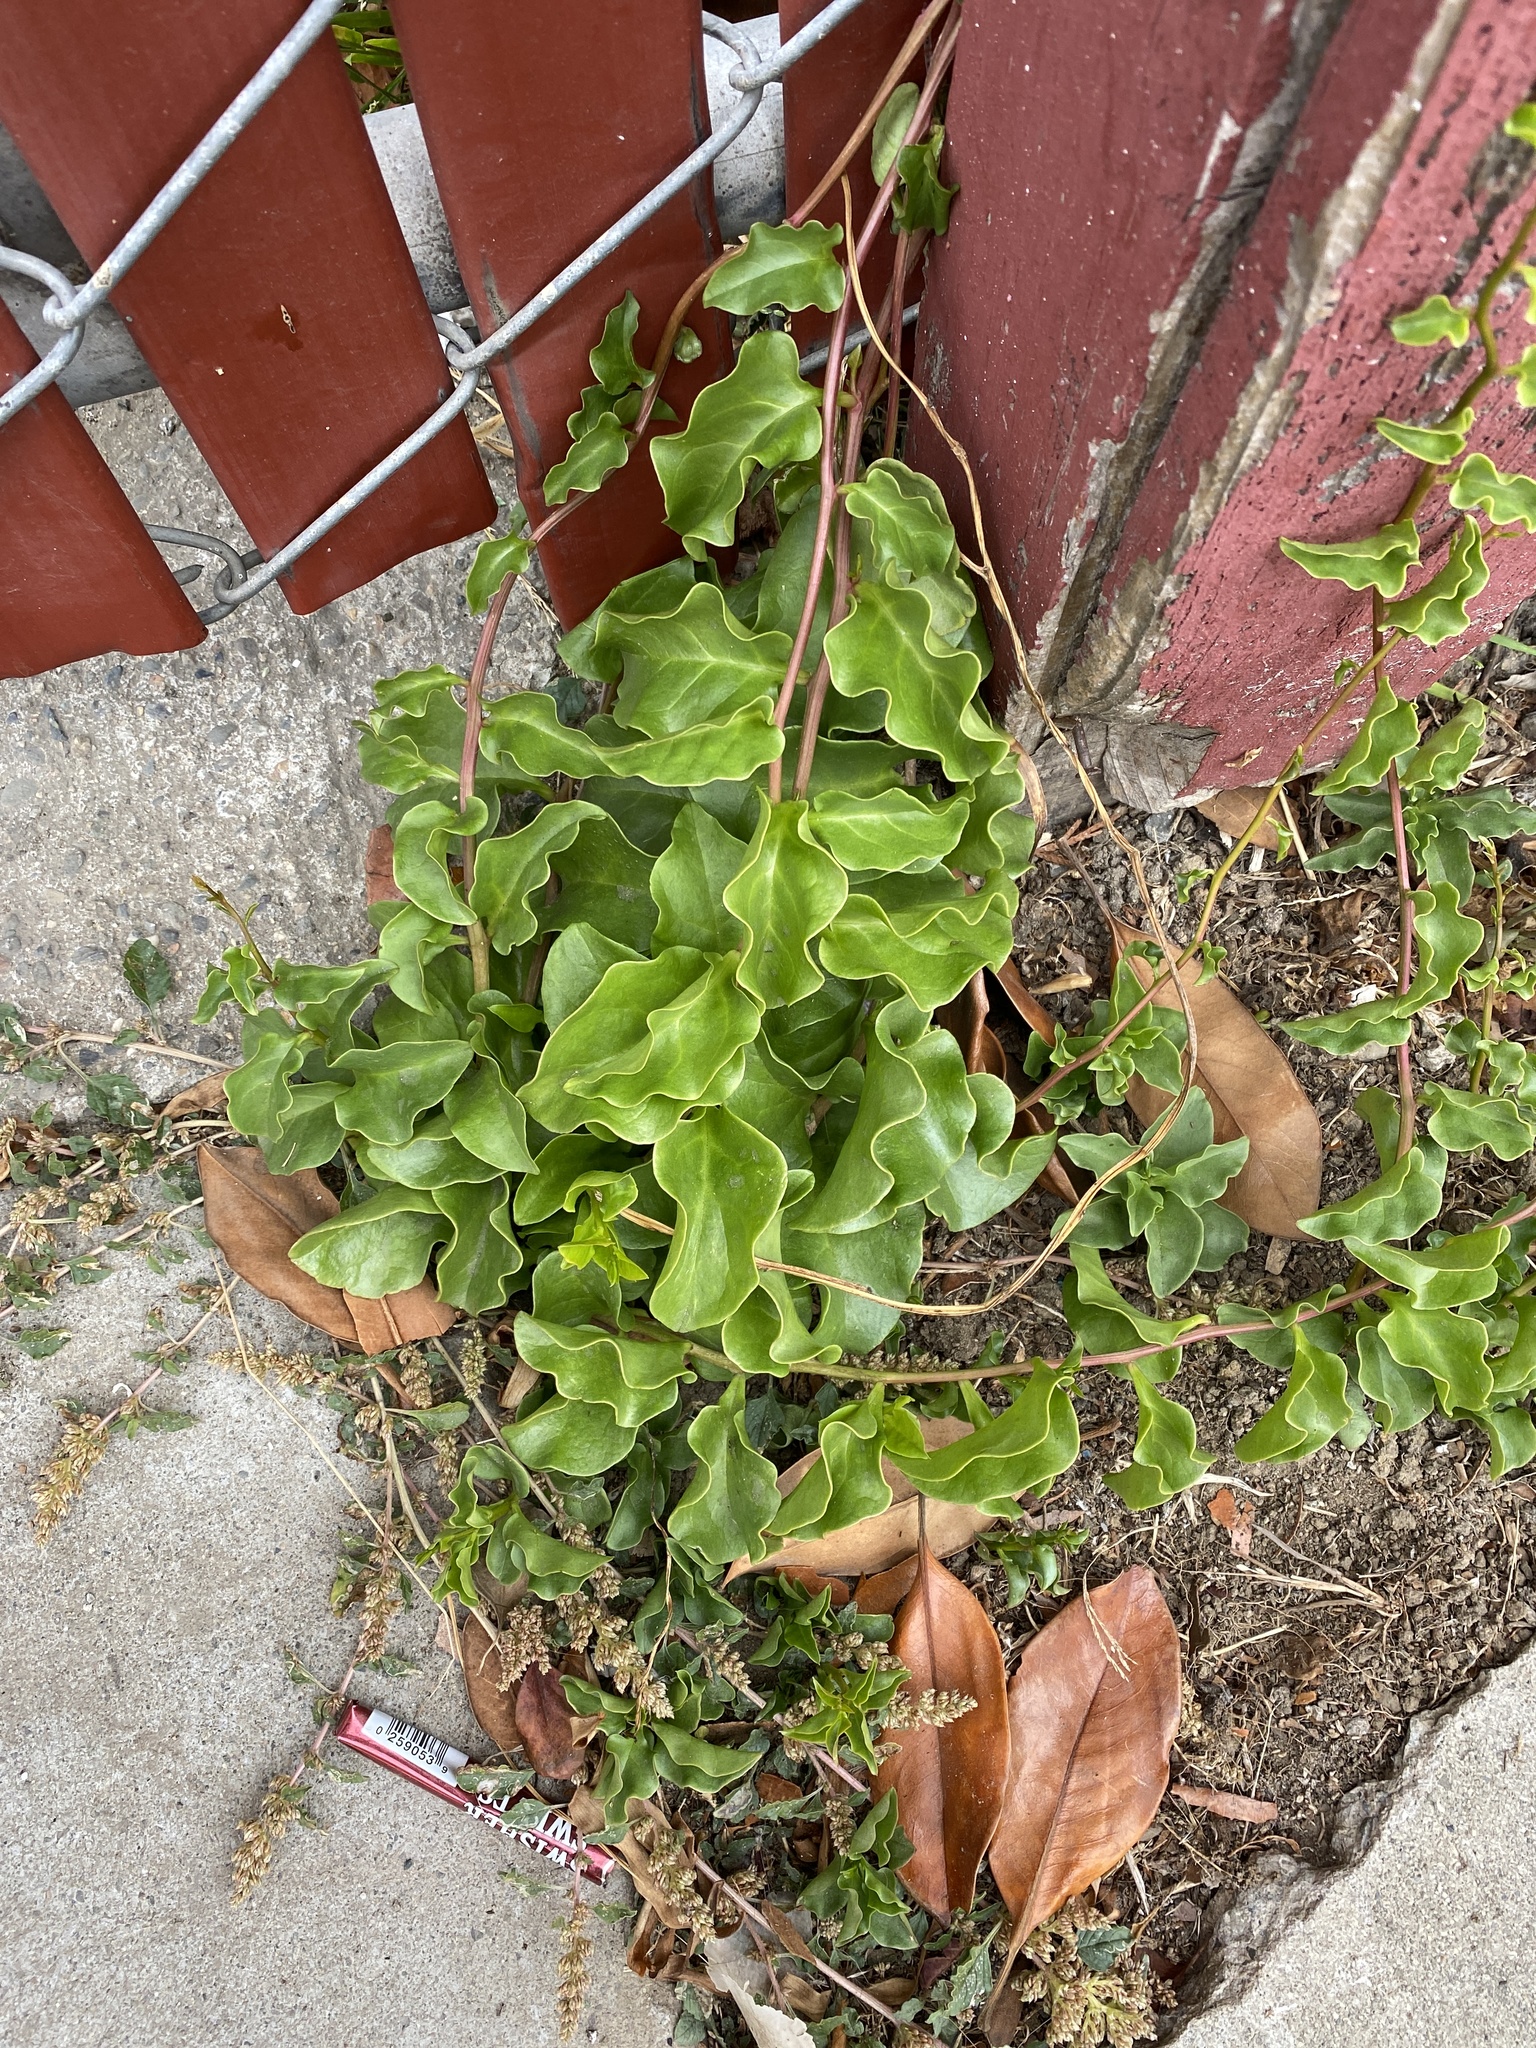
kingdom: Plantae
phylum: Tracheophyta
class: Magnoliopsida
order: Caryophyllales
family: Basellaceae
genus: Anredera
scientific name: Anredera cordifolia
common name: Heartleaf madeiravine
